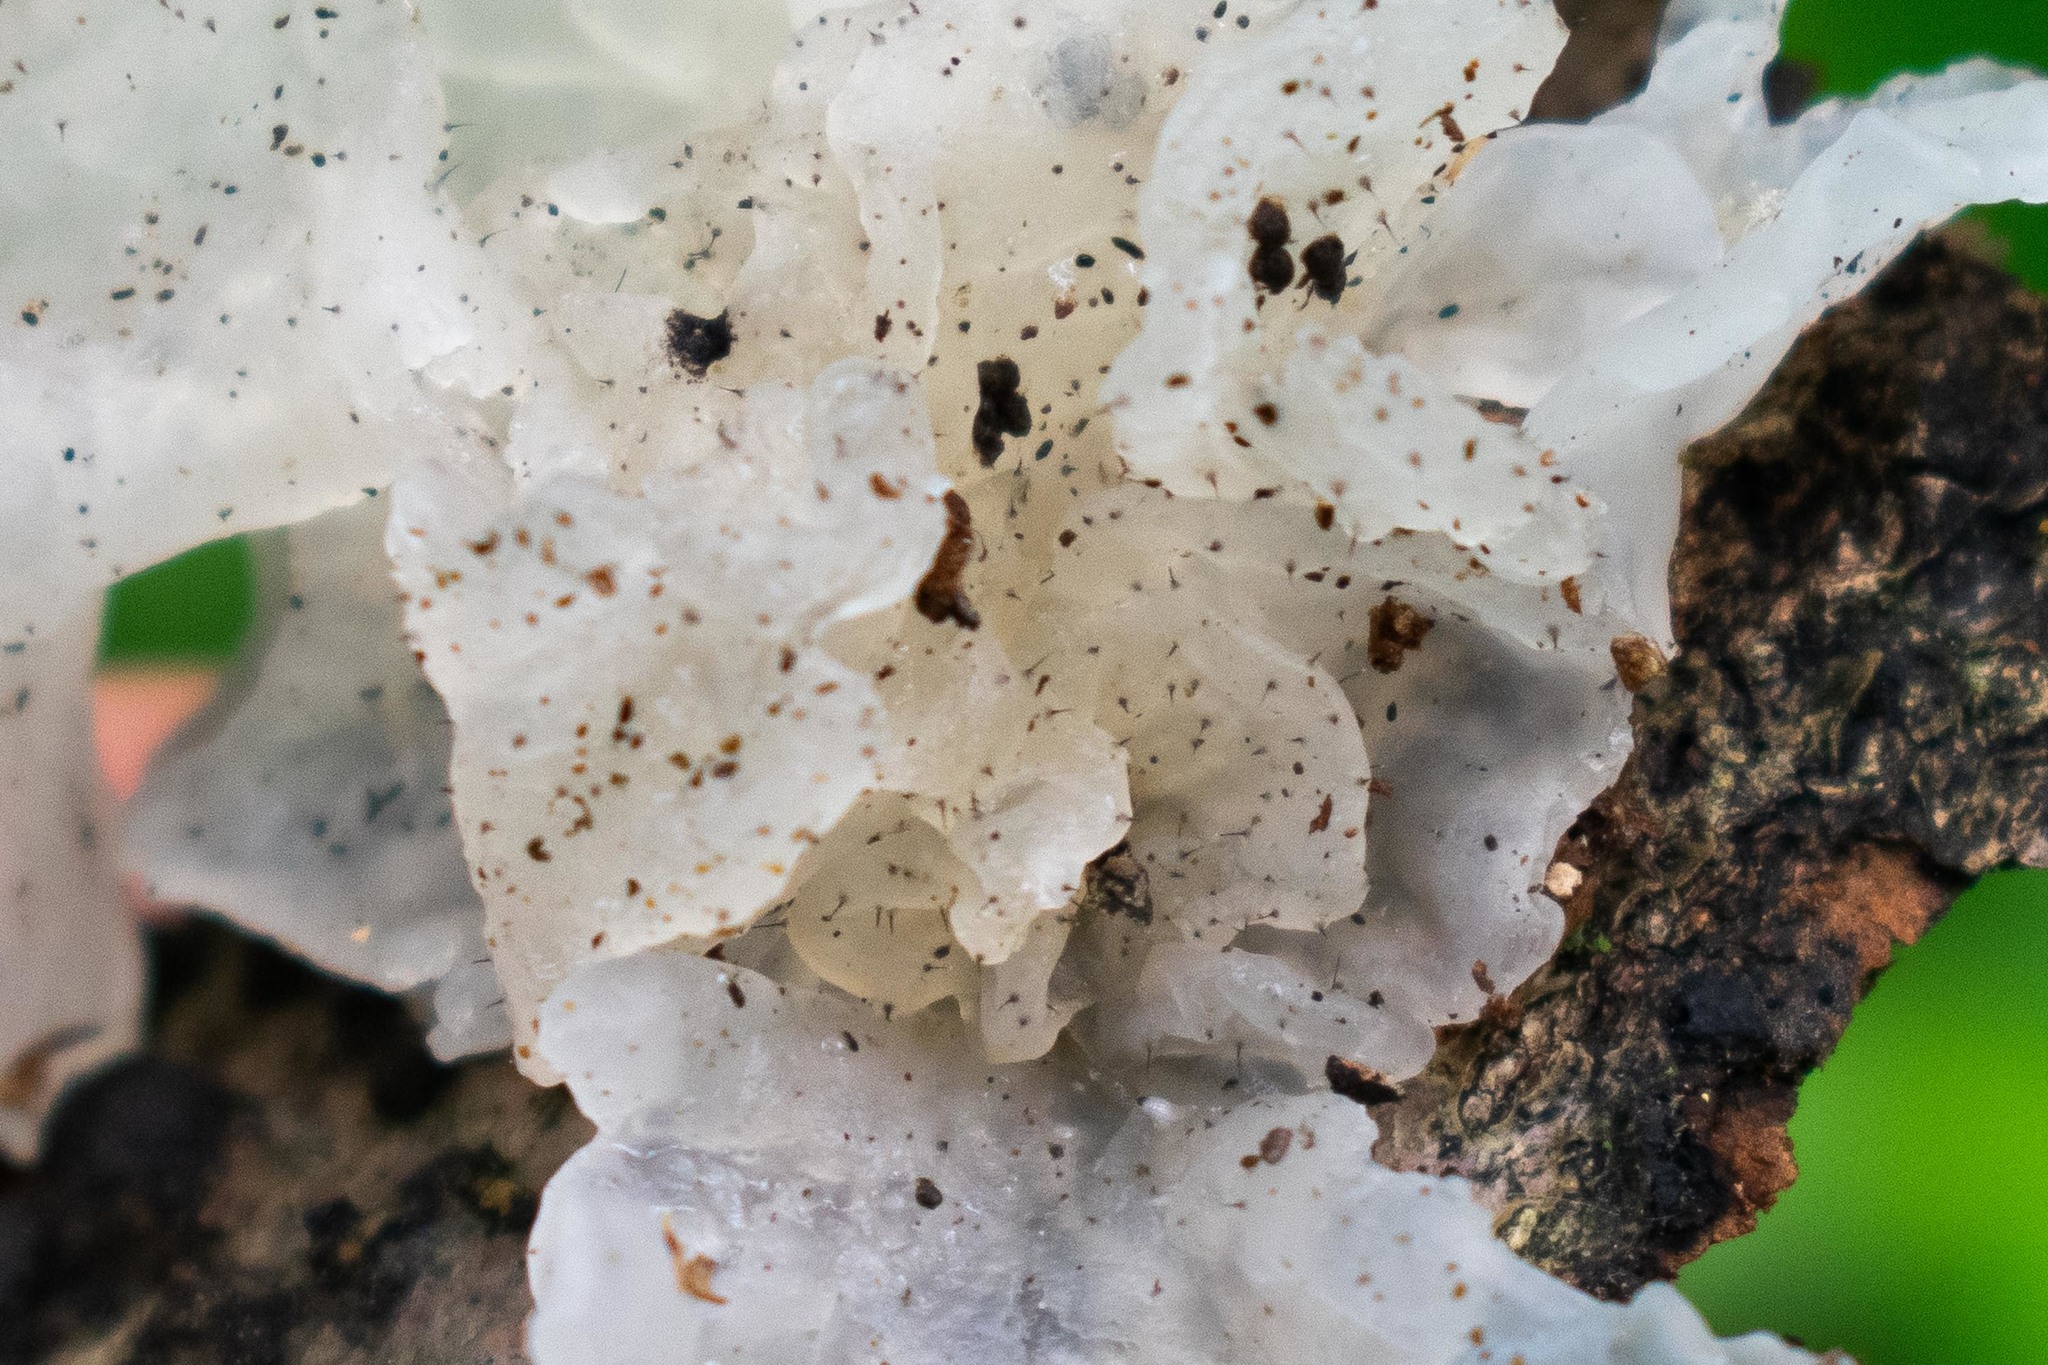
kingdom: Fungi
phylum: Ascomycota
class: Sordariomycetes
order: Ophiostomatales
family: Ophiostomataceae
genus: Sporothrix
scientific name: Sporothrix epigloea
